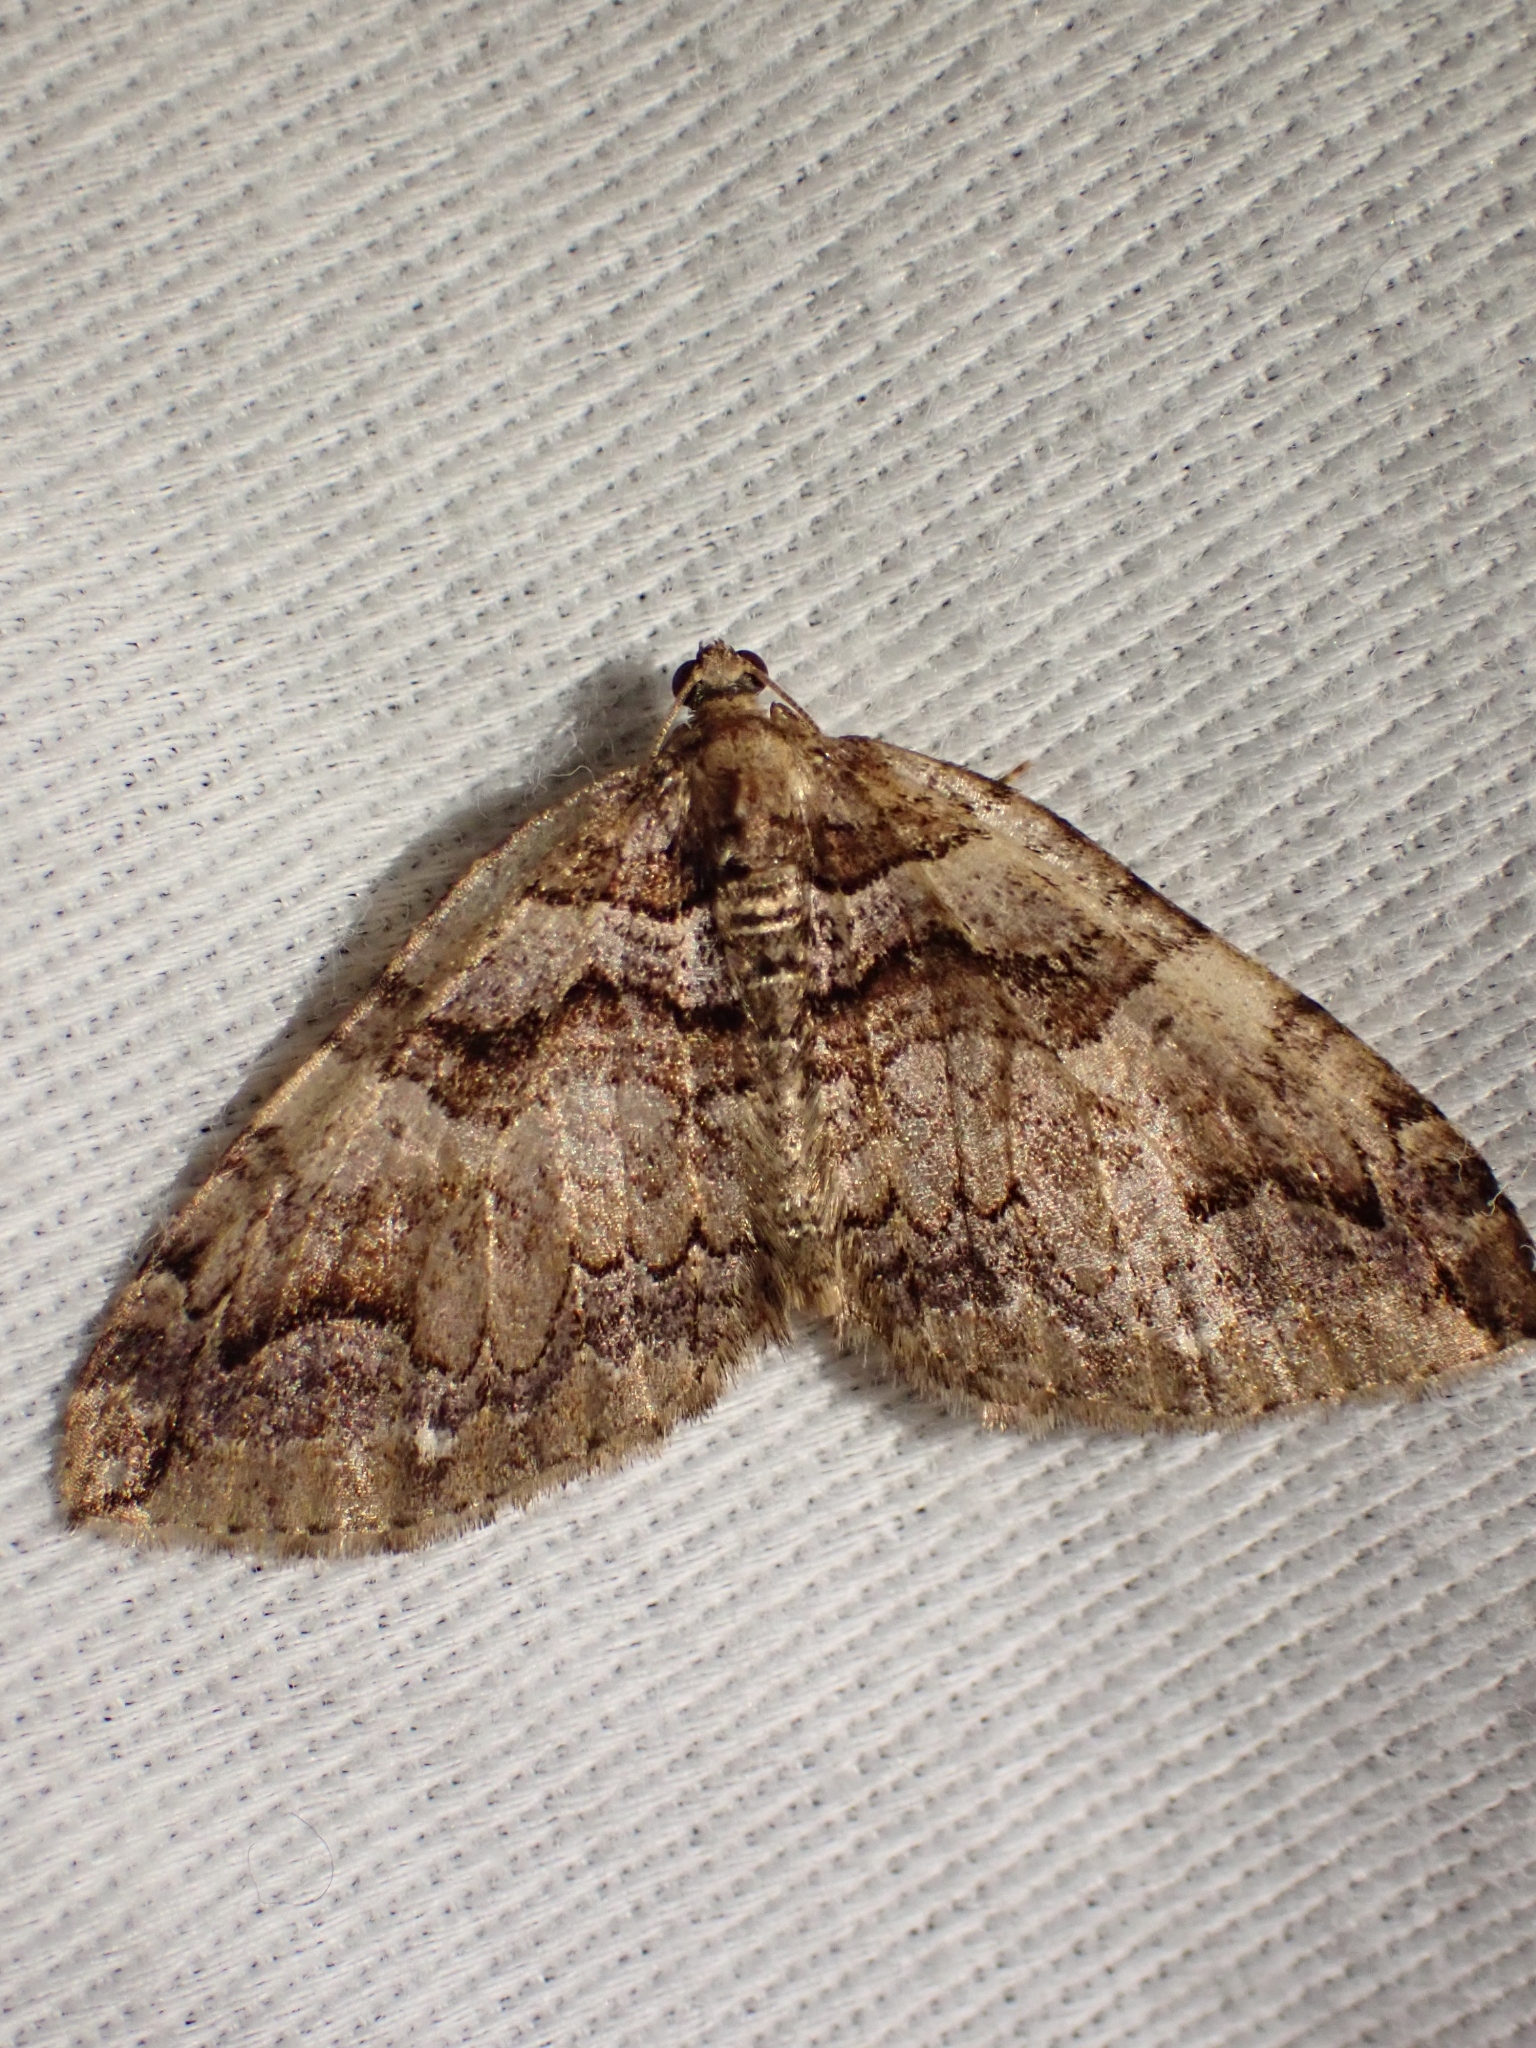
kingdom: Animalia
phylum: Arthropoda
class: Insecta
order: Lepidoptera
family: Geometridae
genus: Anticlea
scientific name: Anticlea vasiliata
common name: Variable carpet
